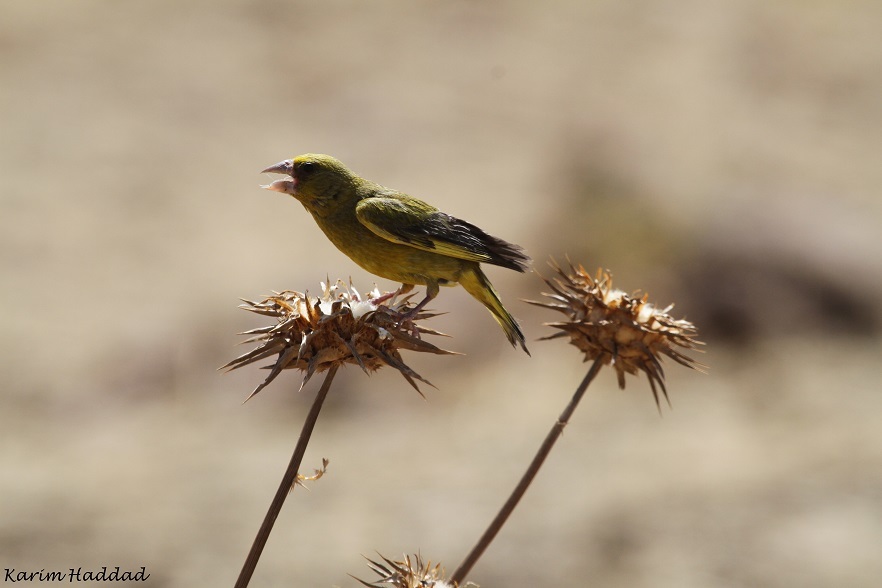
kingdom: Plantae
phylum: Tracheophyta
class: Liliopsida
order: Poales
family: Poaceae
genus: Chloris
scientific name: Chloris chloris
